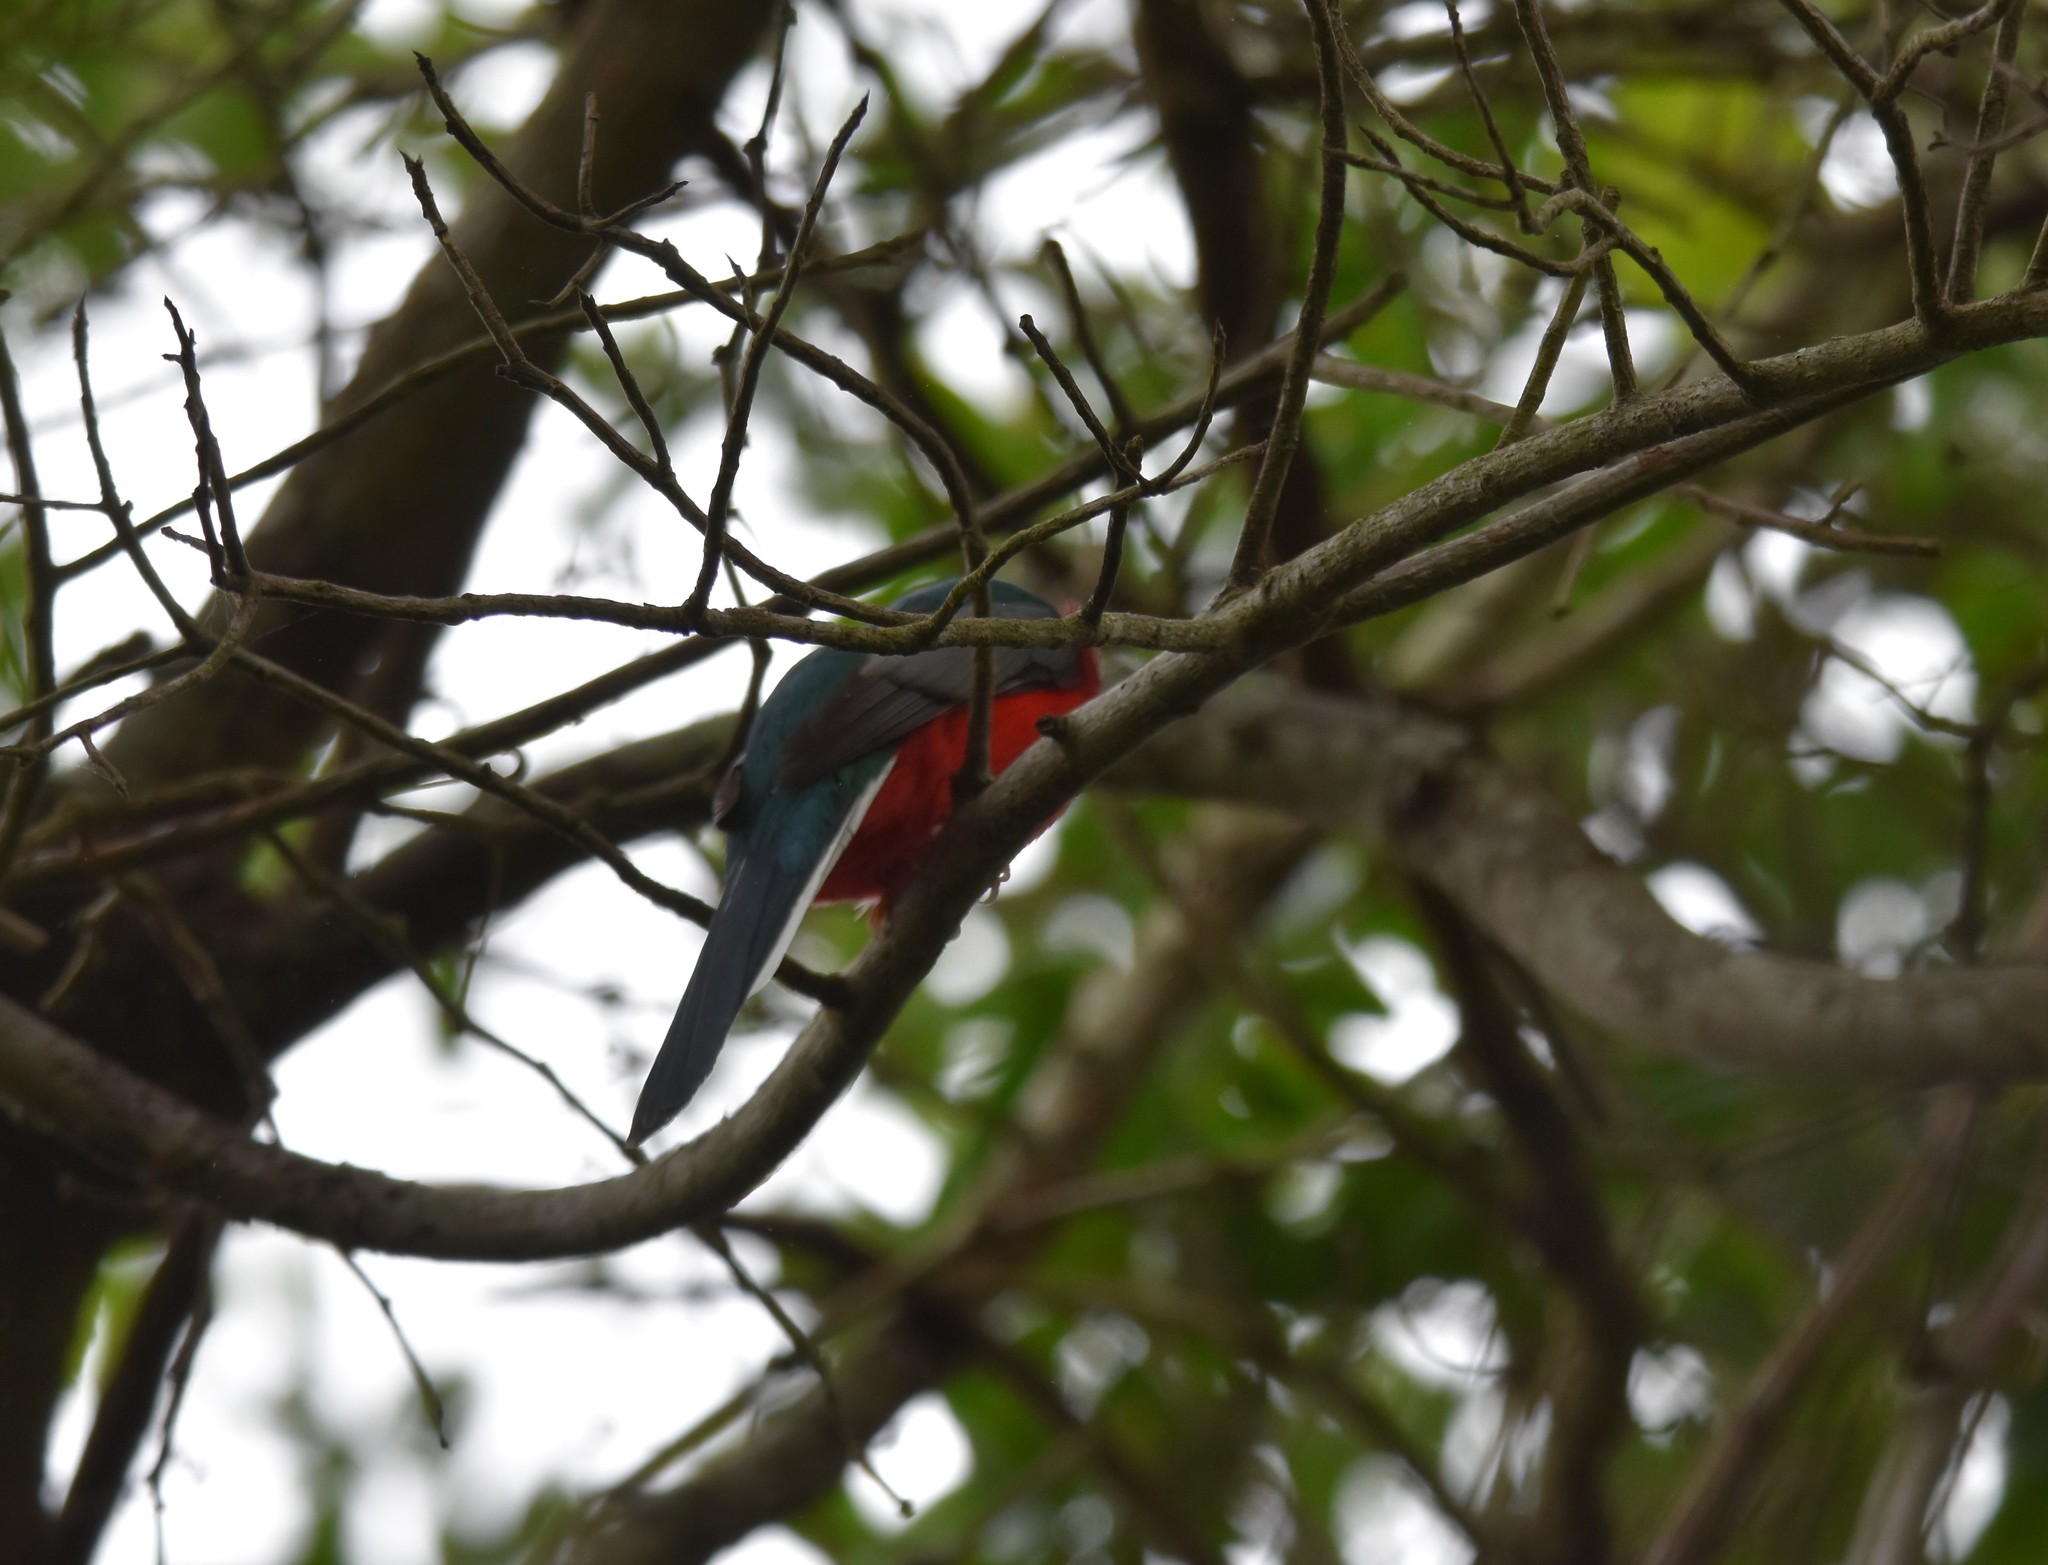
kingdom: Animalia
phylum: Chordata
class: Aves
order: Trogoniformes
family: Trogonidae
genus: Apaloderma
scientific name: Apaloderma narina
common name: Narina trogon
